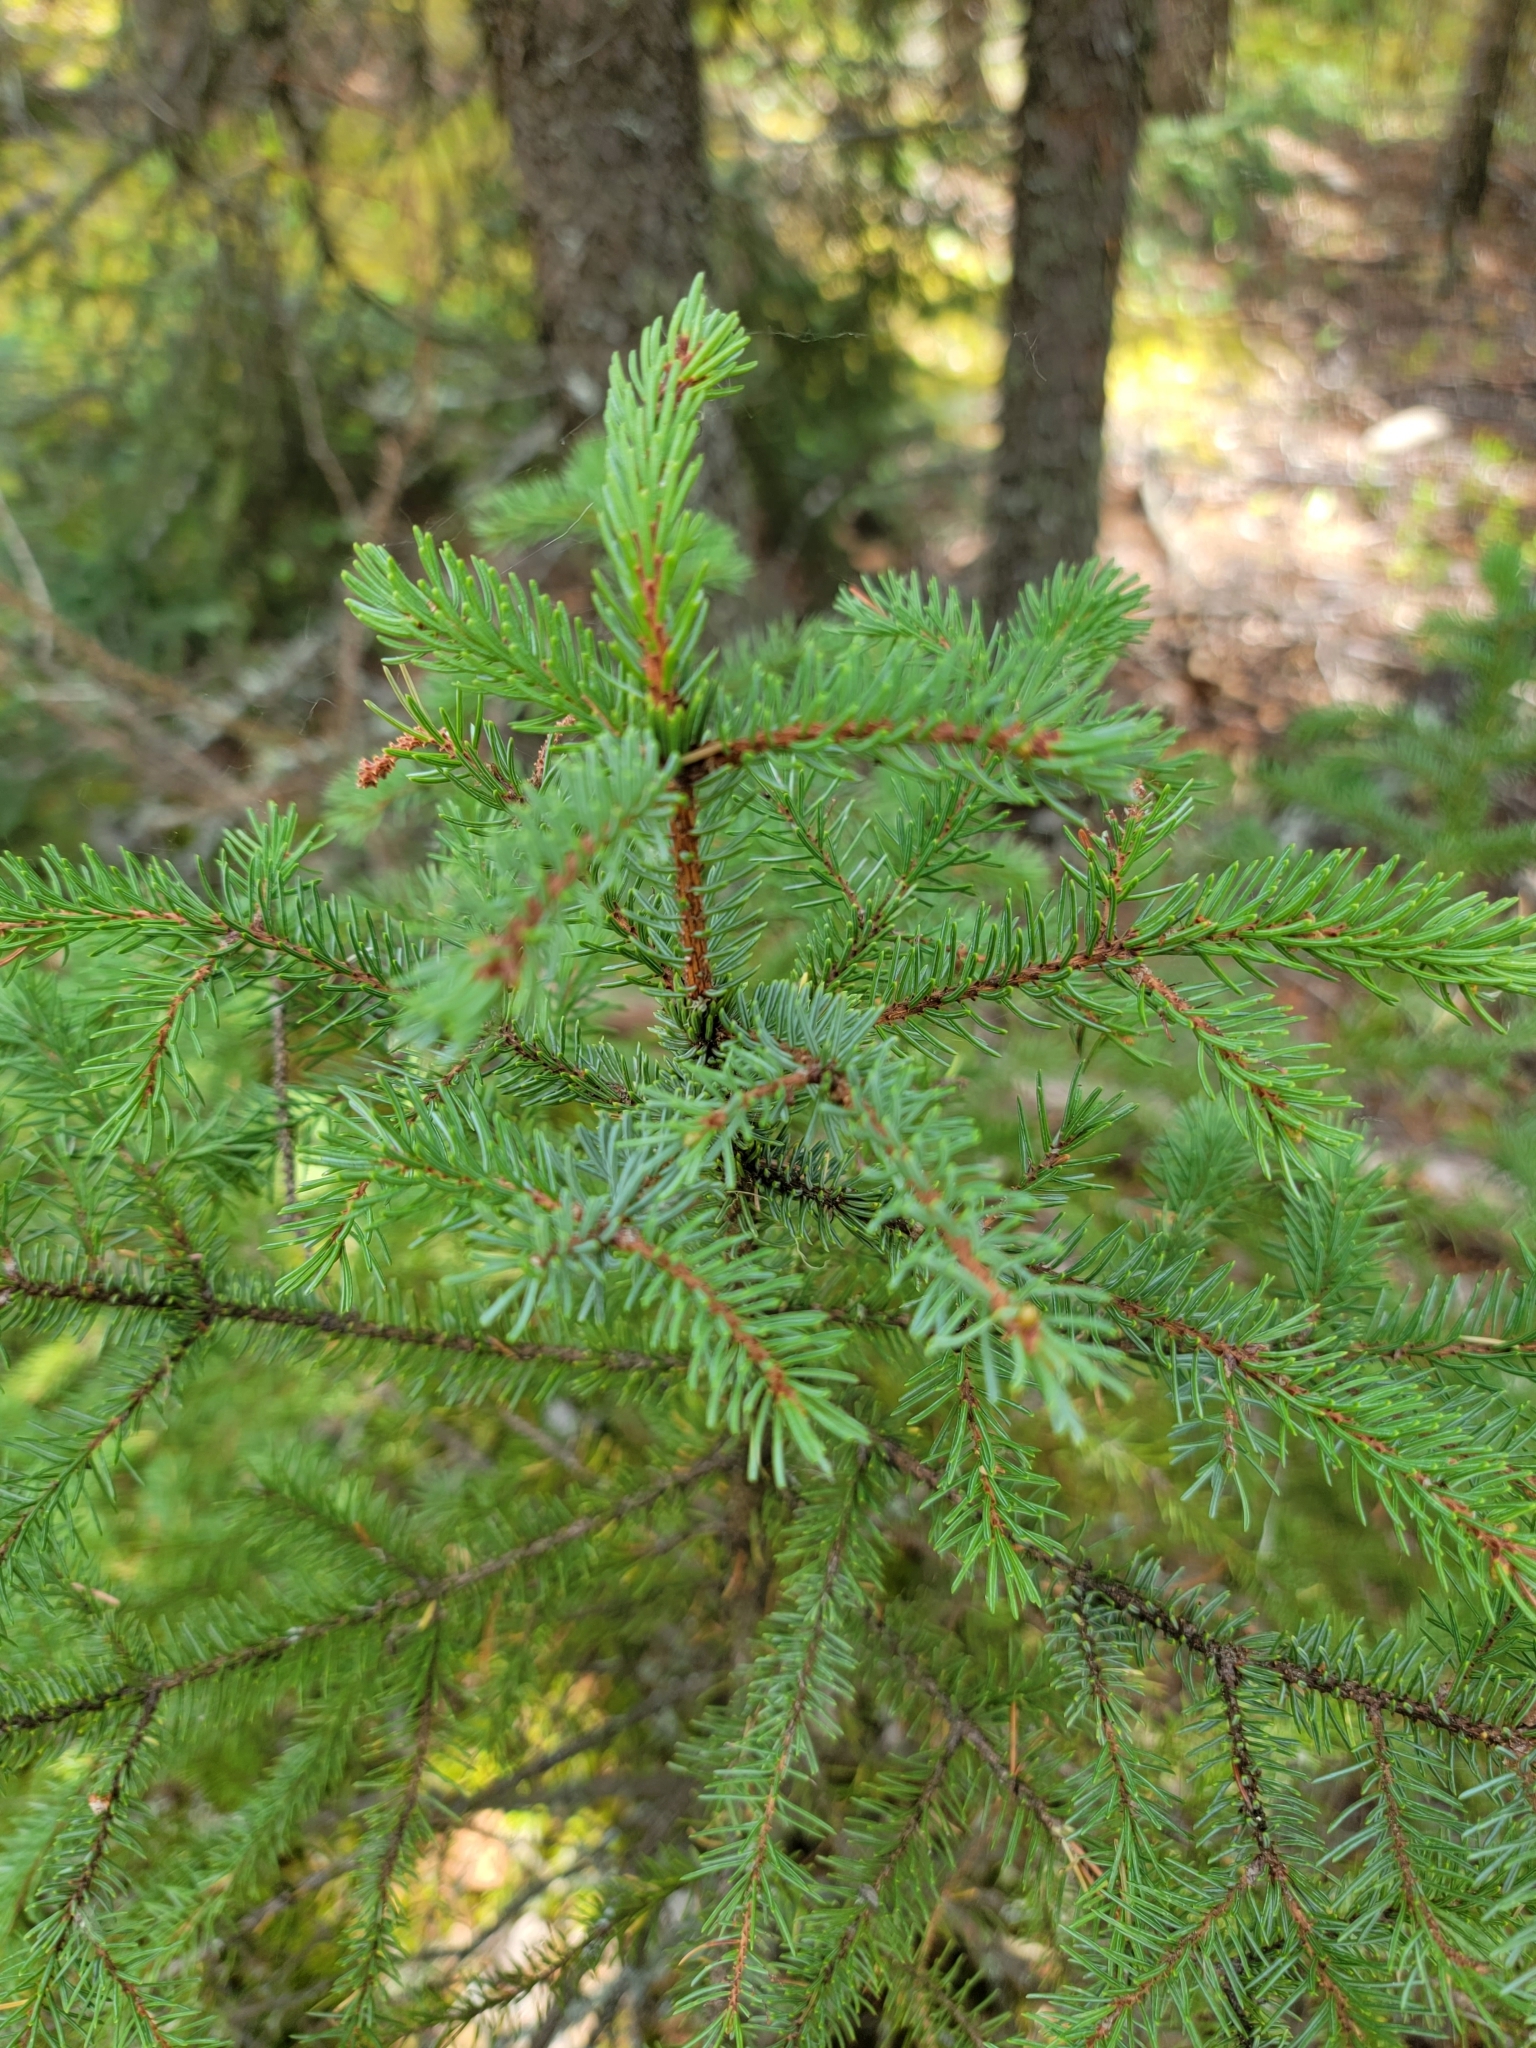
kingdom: Plantae
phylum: Tracheophyta
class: Pinopsida
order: Pinales
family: Pinaceae
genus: Picea
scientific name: Picea mariana
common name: Black spruce
